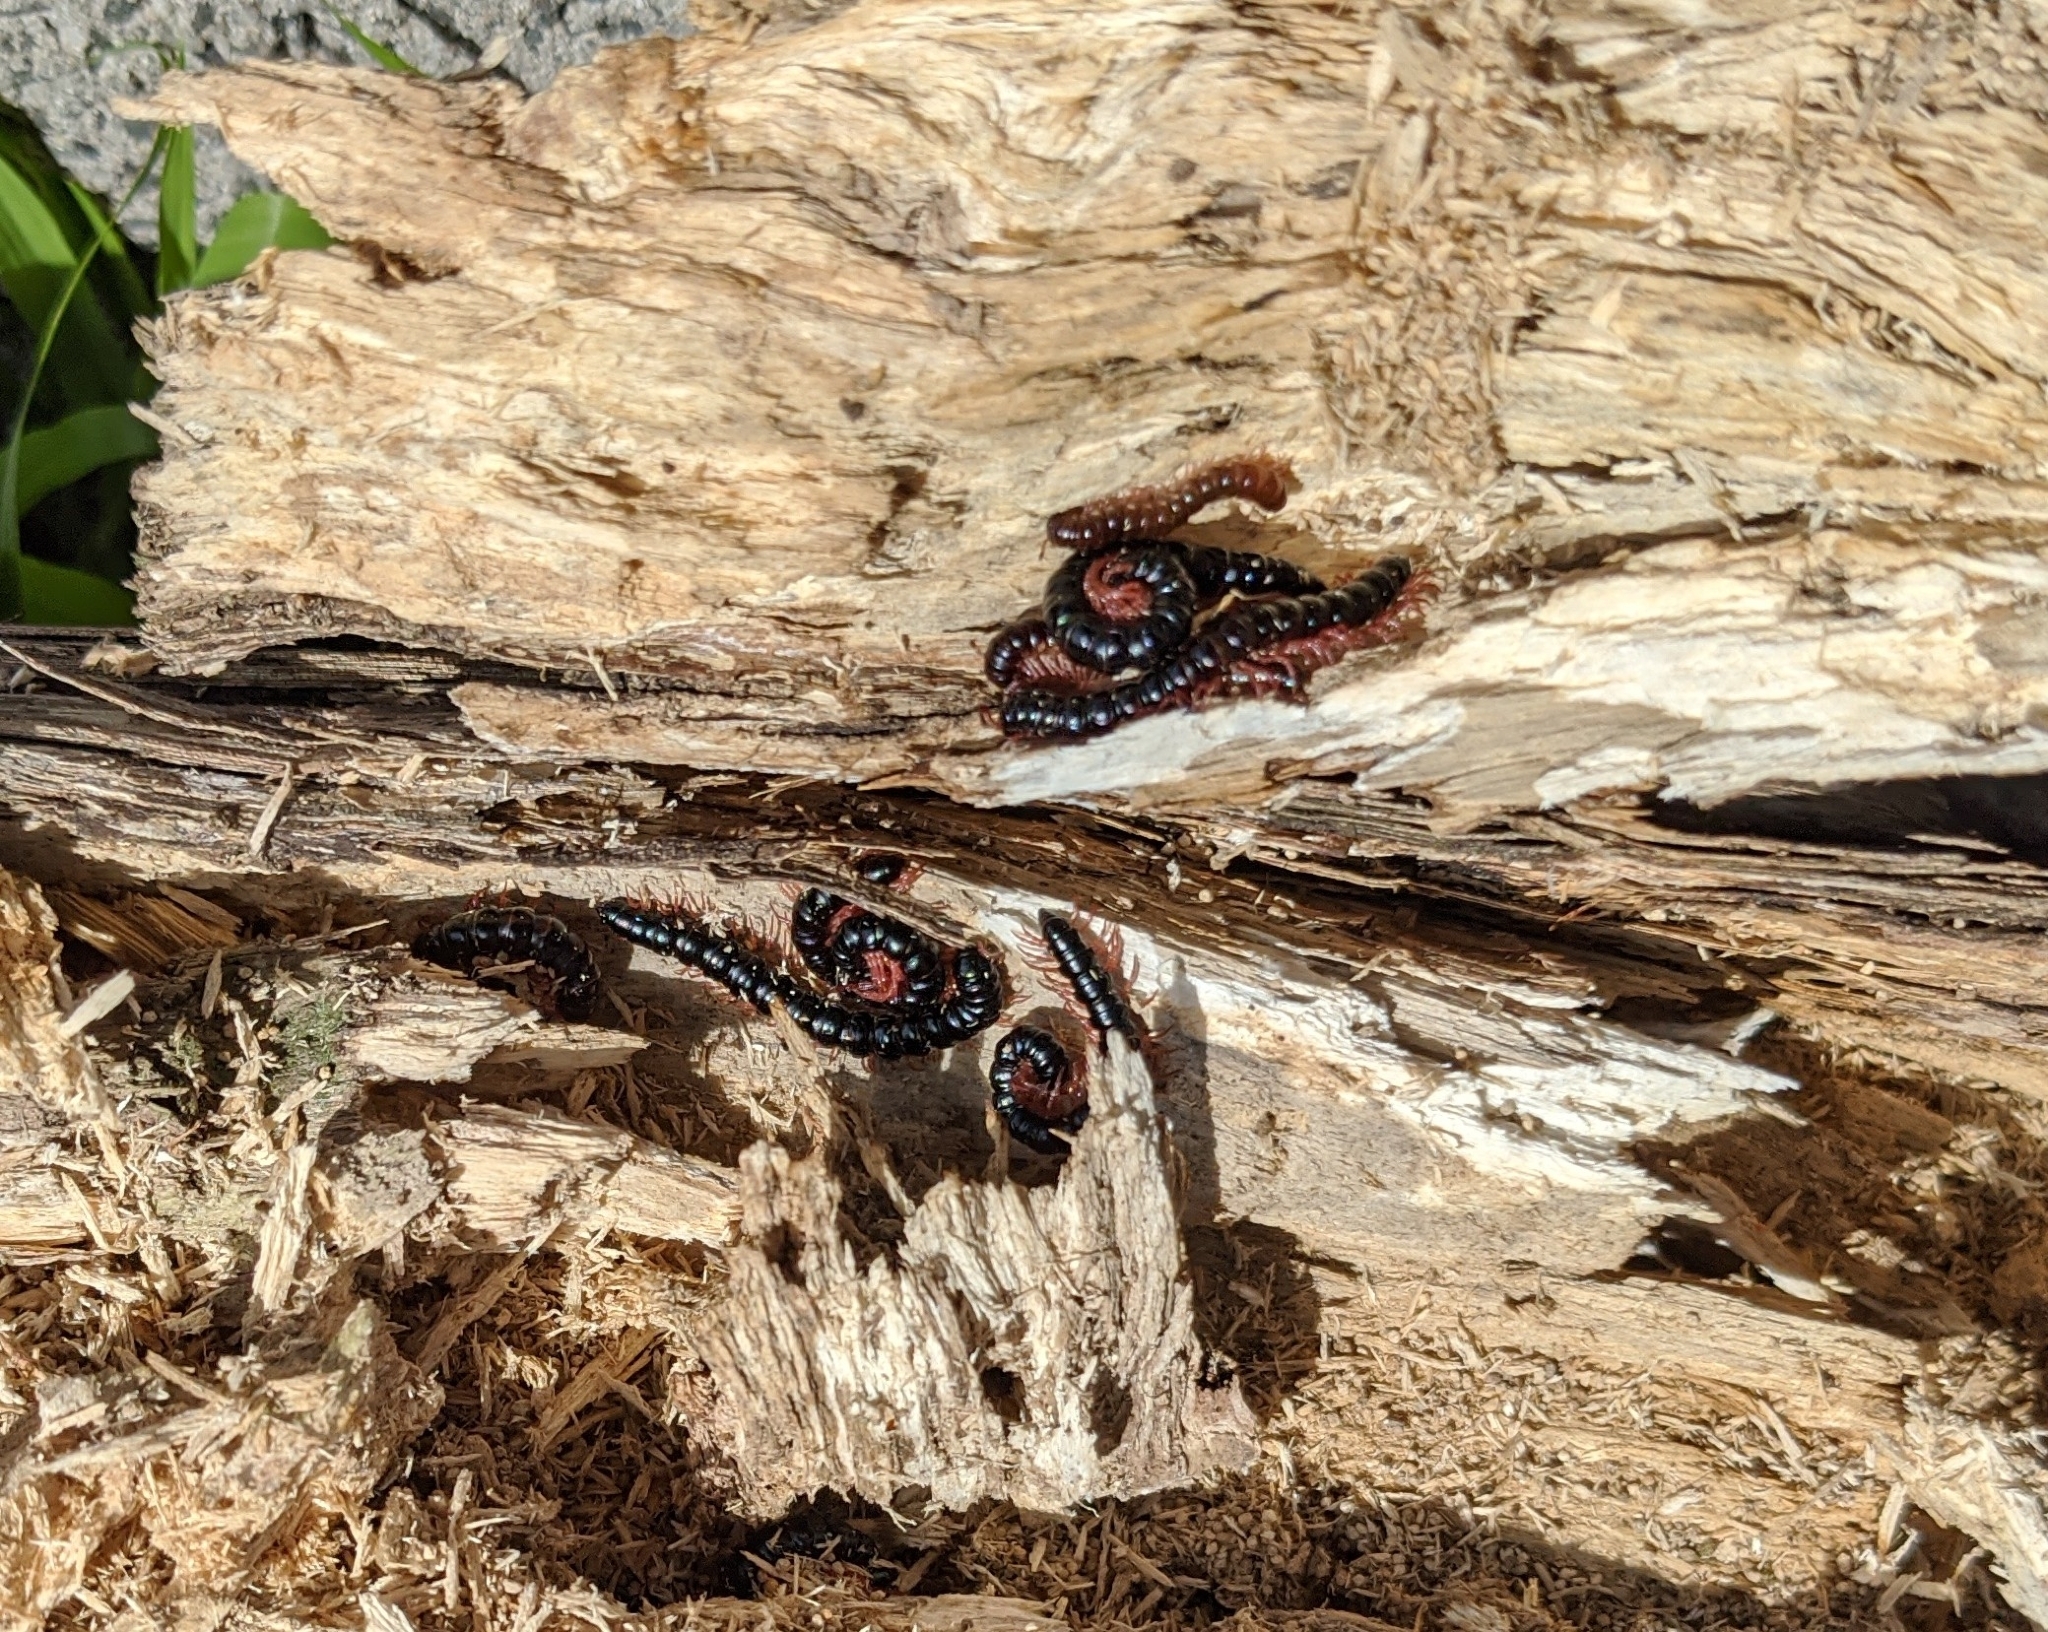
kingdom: Animalia
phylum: Arthropoda
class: Diplopoda
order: Polydesmida
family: Paradoxosomatidae
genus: Heterocladosoma
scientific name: Heterocladosoma
